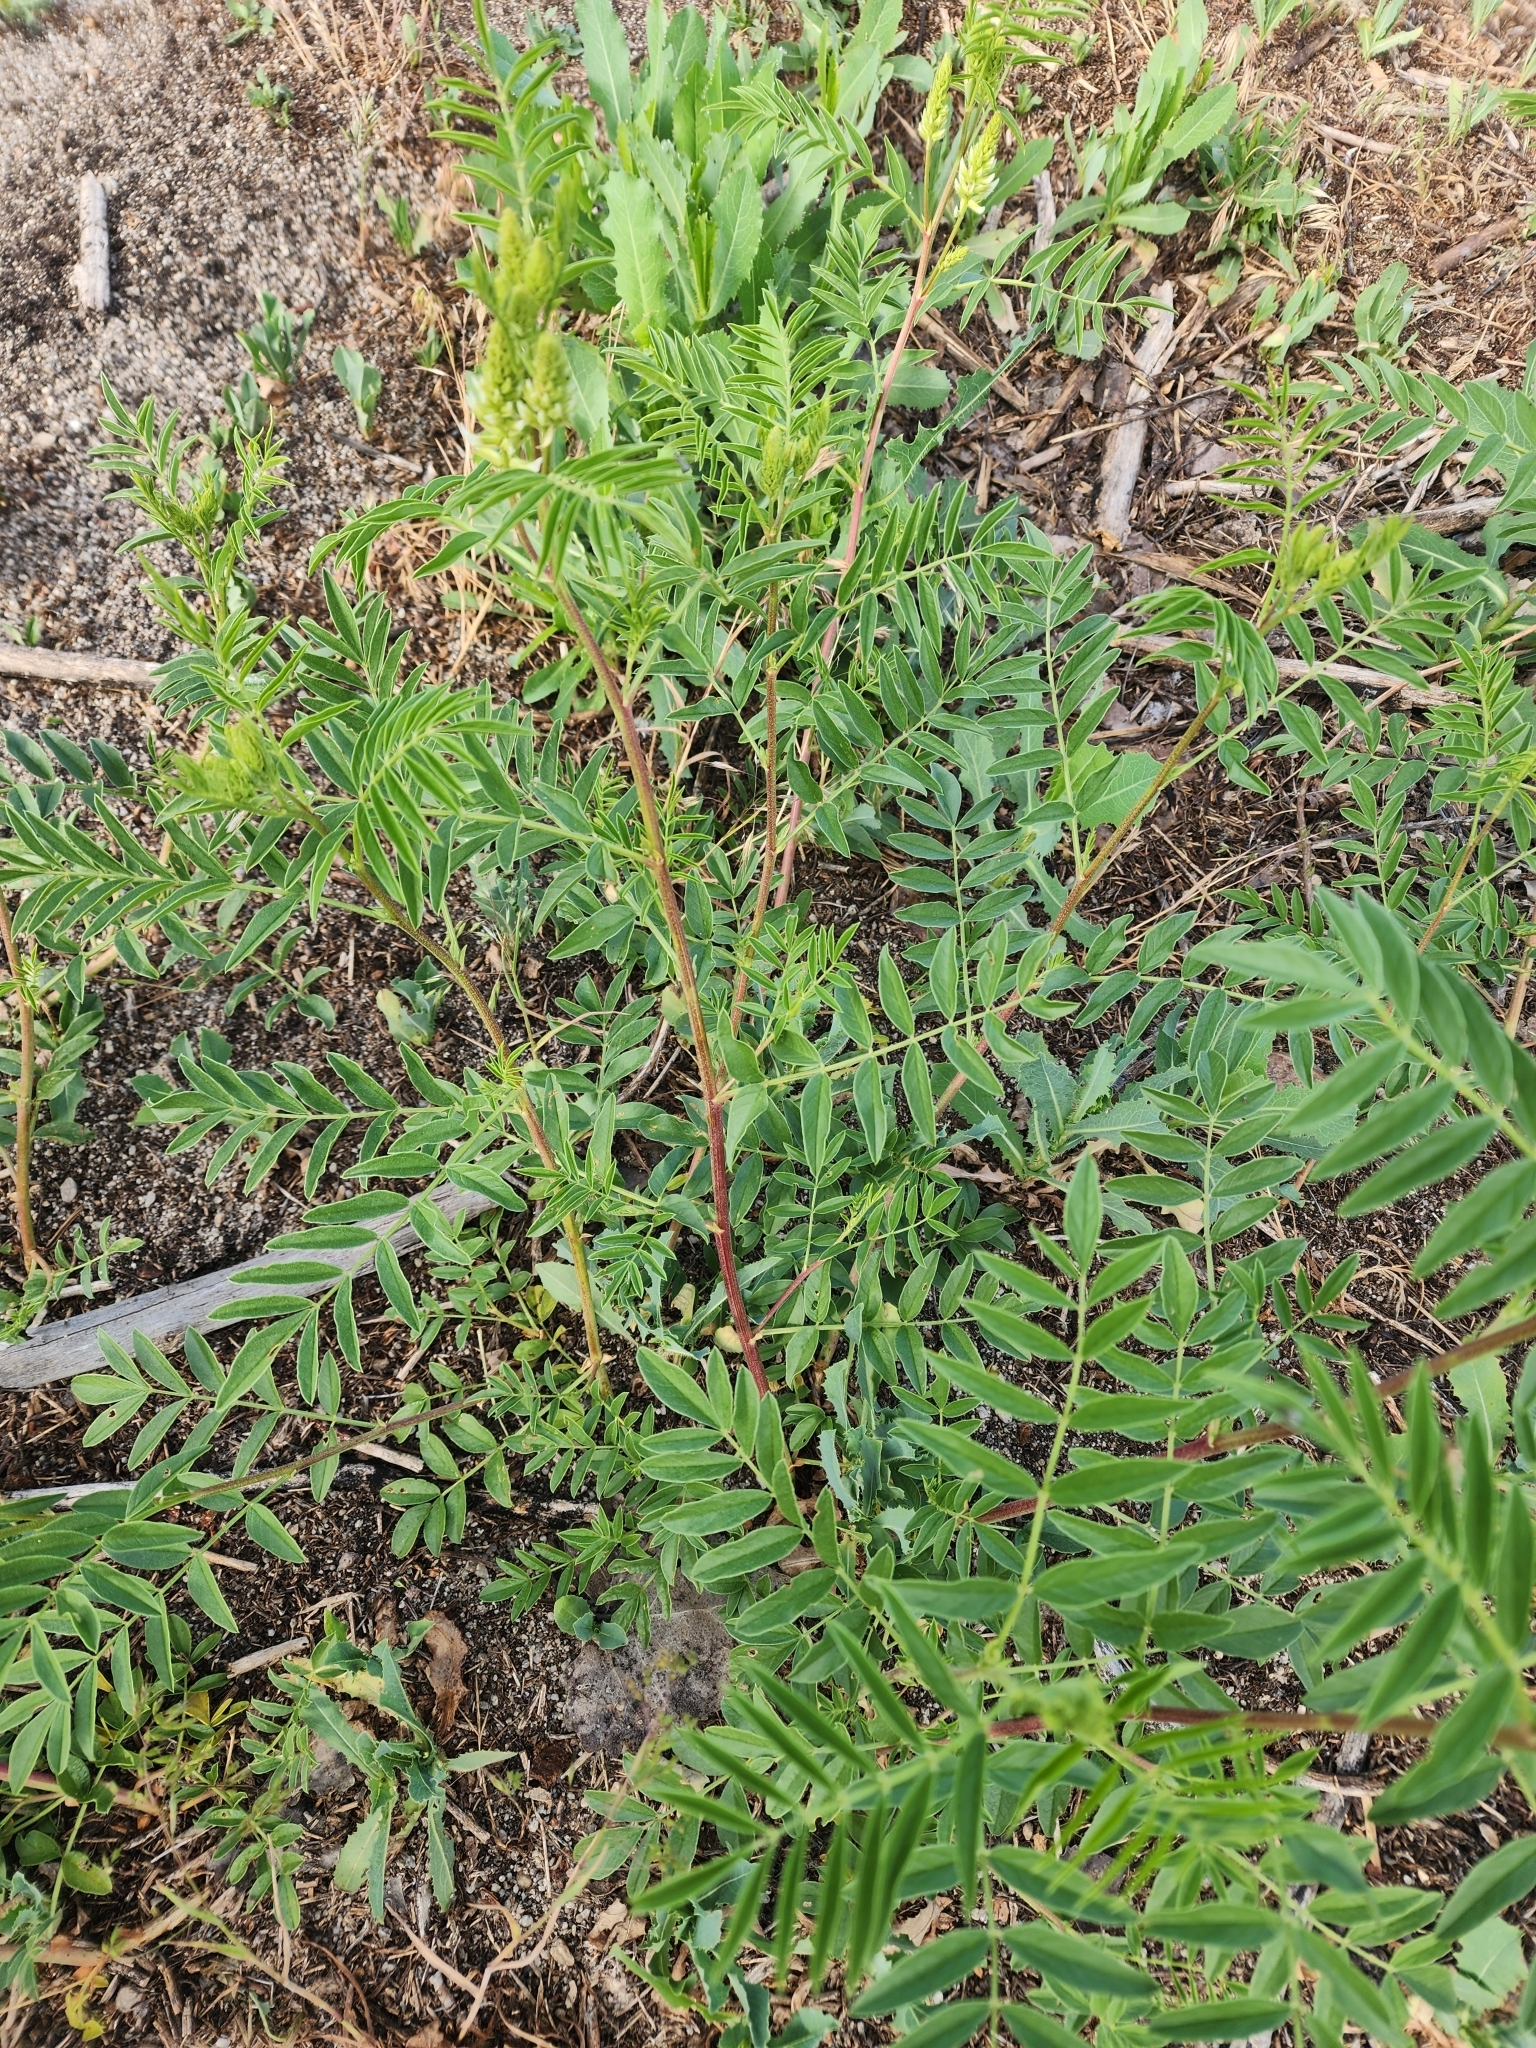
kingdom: Plantae
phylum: Tracheophyta
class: Magnoliopsida
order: Fabales
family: Fabaceae
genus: Glycyrrhiza
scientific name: Glycyrrhiza lepidota
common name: American liquorice
